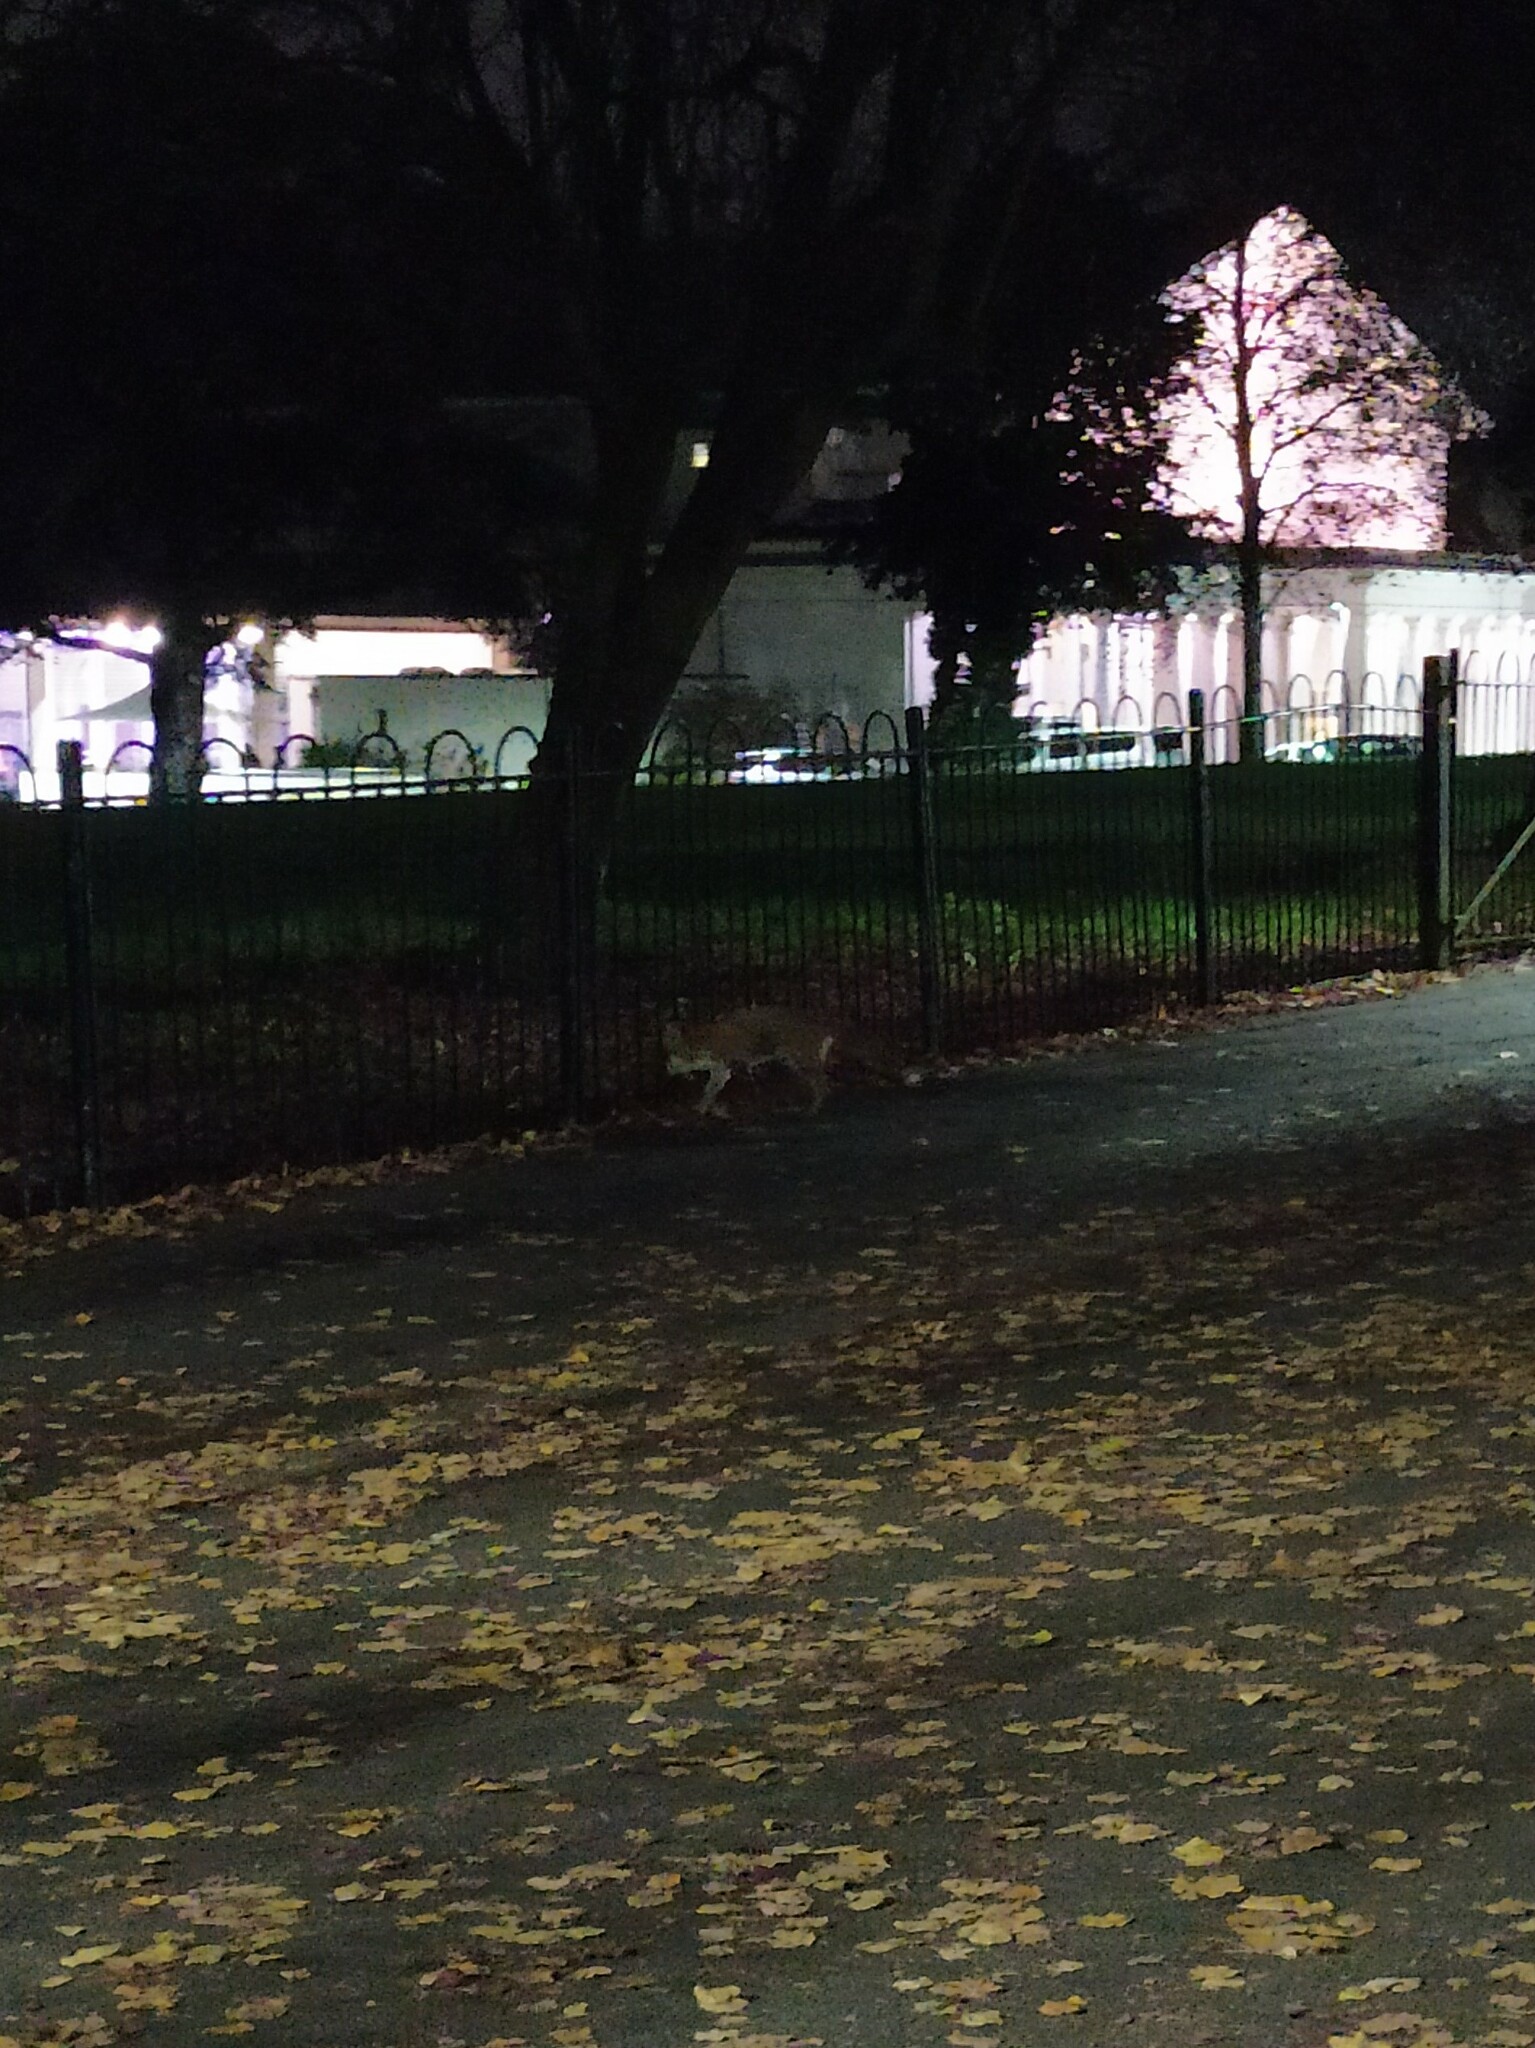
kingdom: Animalia
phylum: Chordata
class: Mammalia
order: Carnivora
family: Canidae
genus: Vulpes
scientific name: Vulpes vulpes
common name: Red fox
